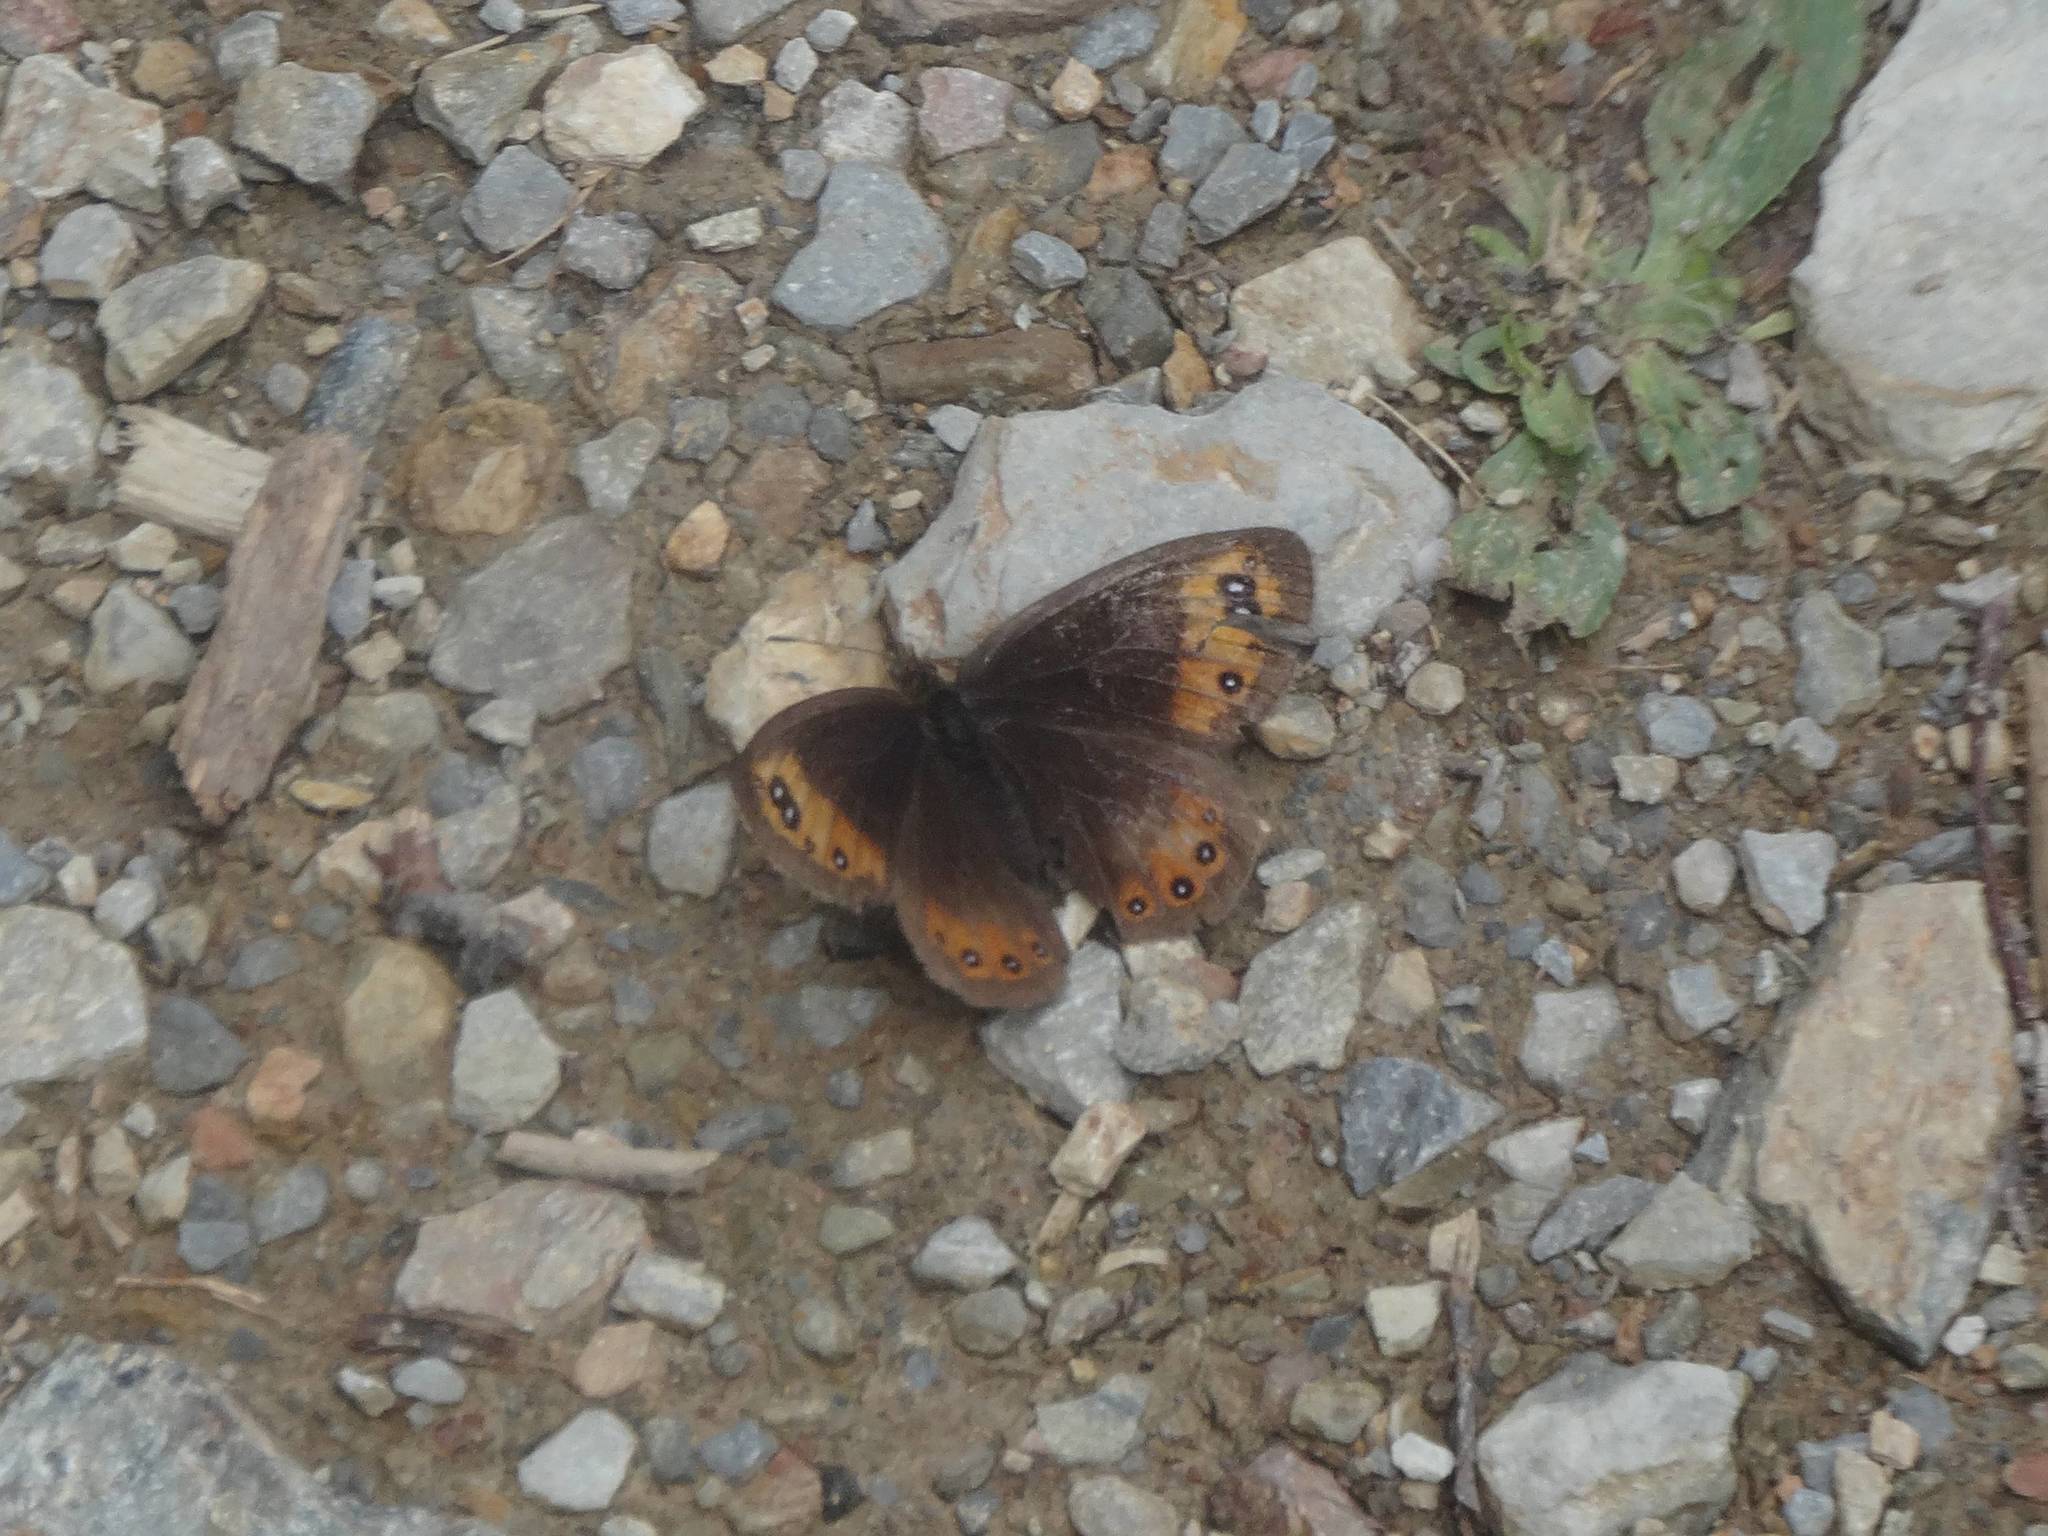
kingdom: Animalia
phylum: Arthropoda
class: Insecta
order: Lepidoptera
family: Nymphalidae
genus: Erebia
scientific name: Erebia meolans
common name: Piedmont ringlet
